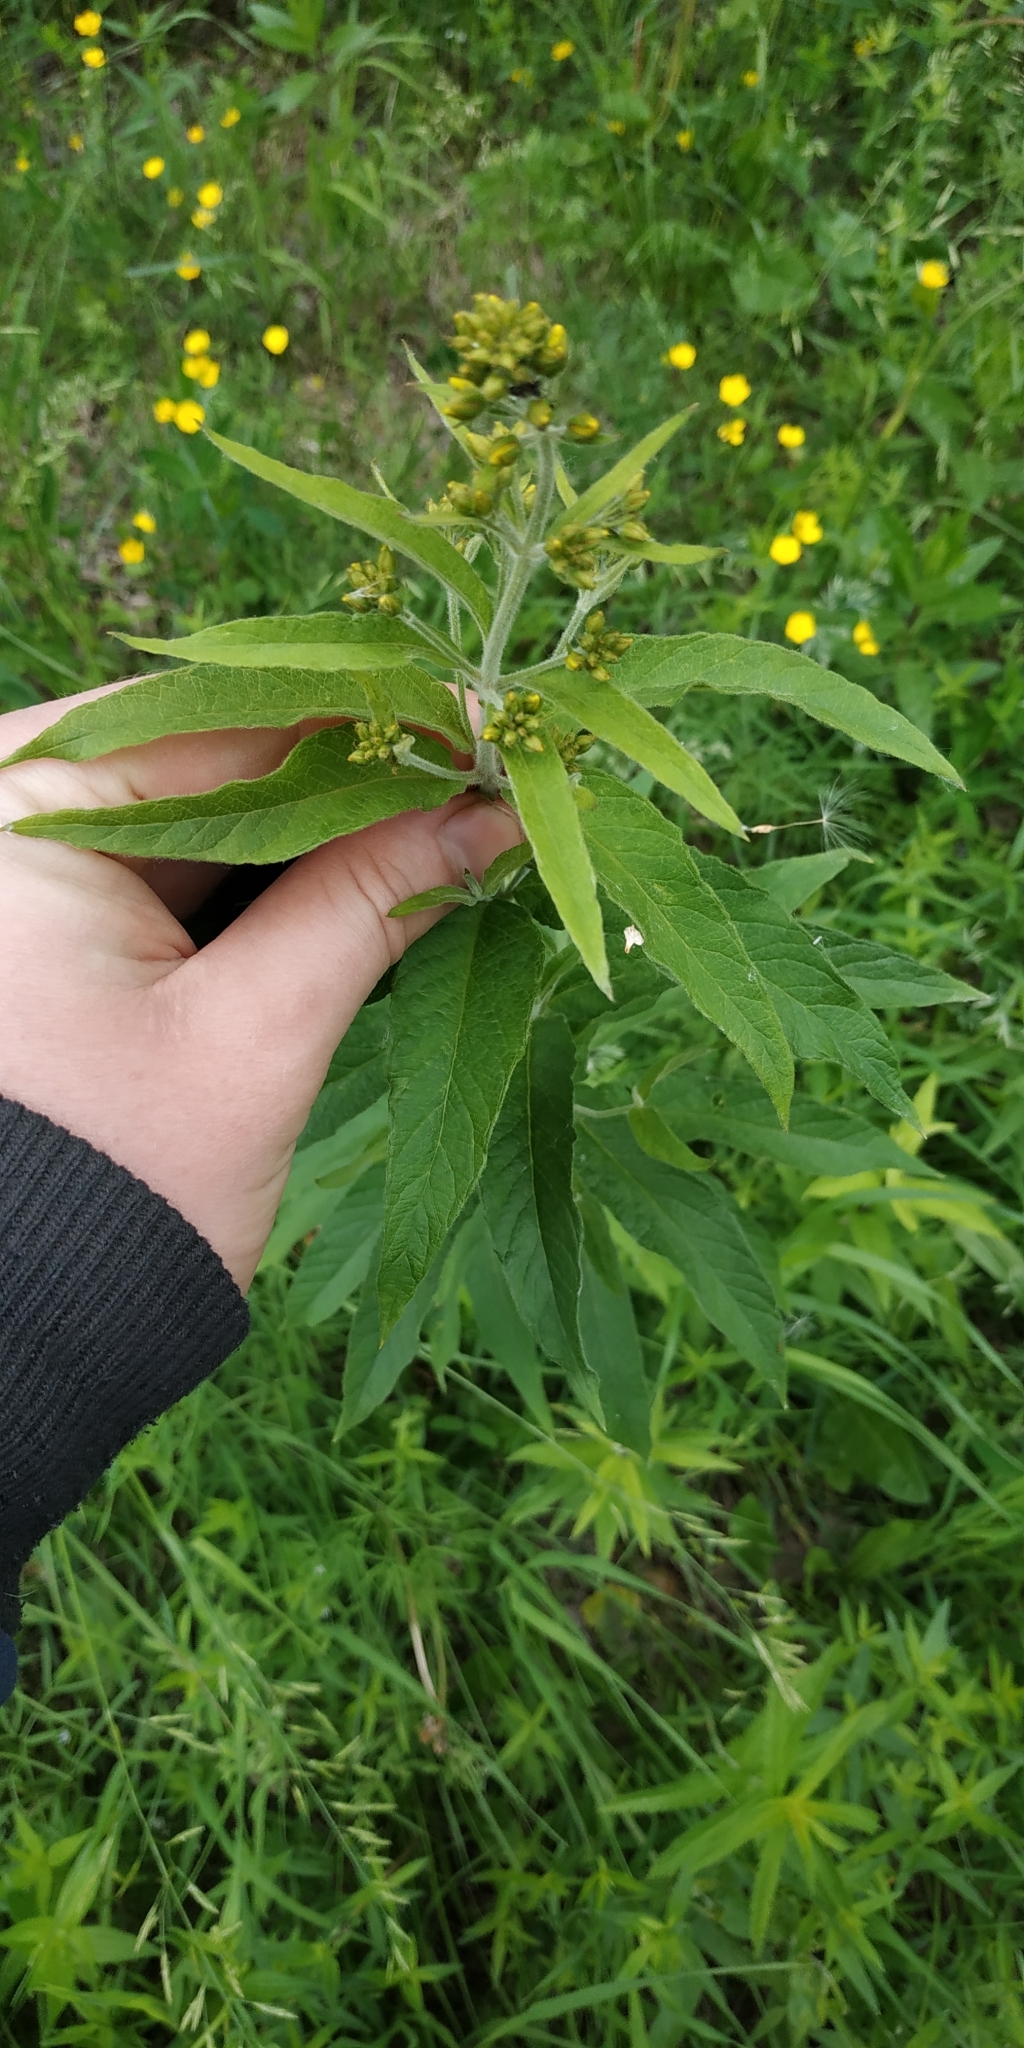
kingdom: Plantae
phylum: Tracheophyta
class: Magnoliopsida
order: Ericales
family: Primulaceae
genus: Lysimachia
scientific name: Lysimachia vulgaris
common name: Yellow loosestrife
